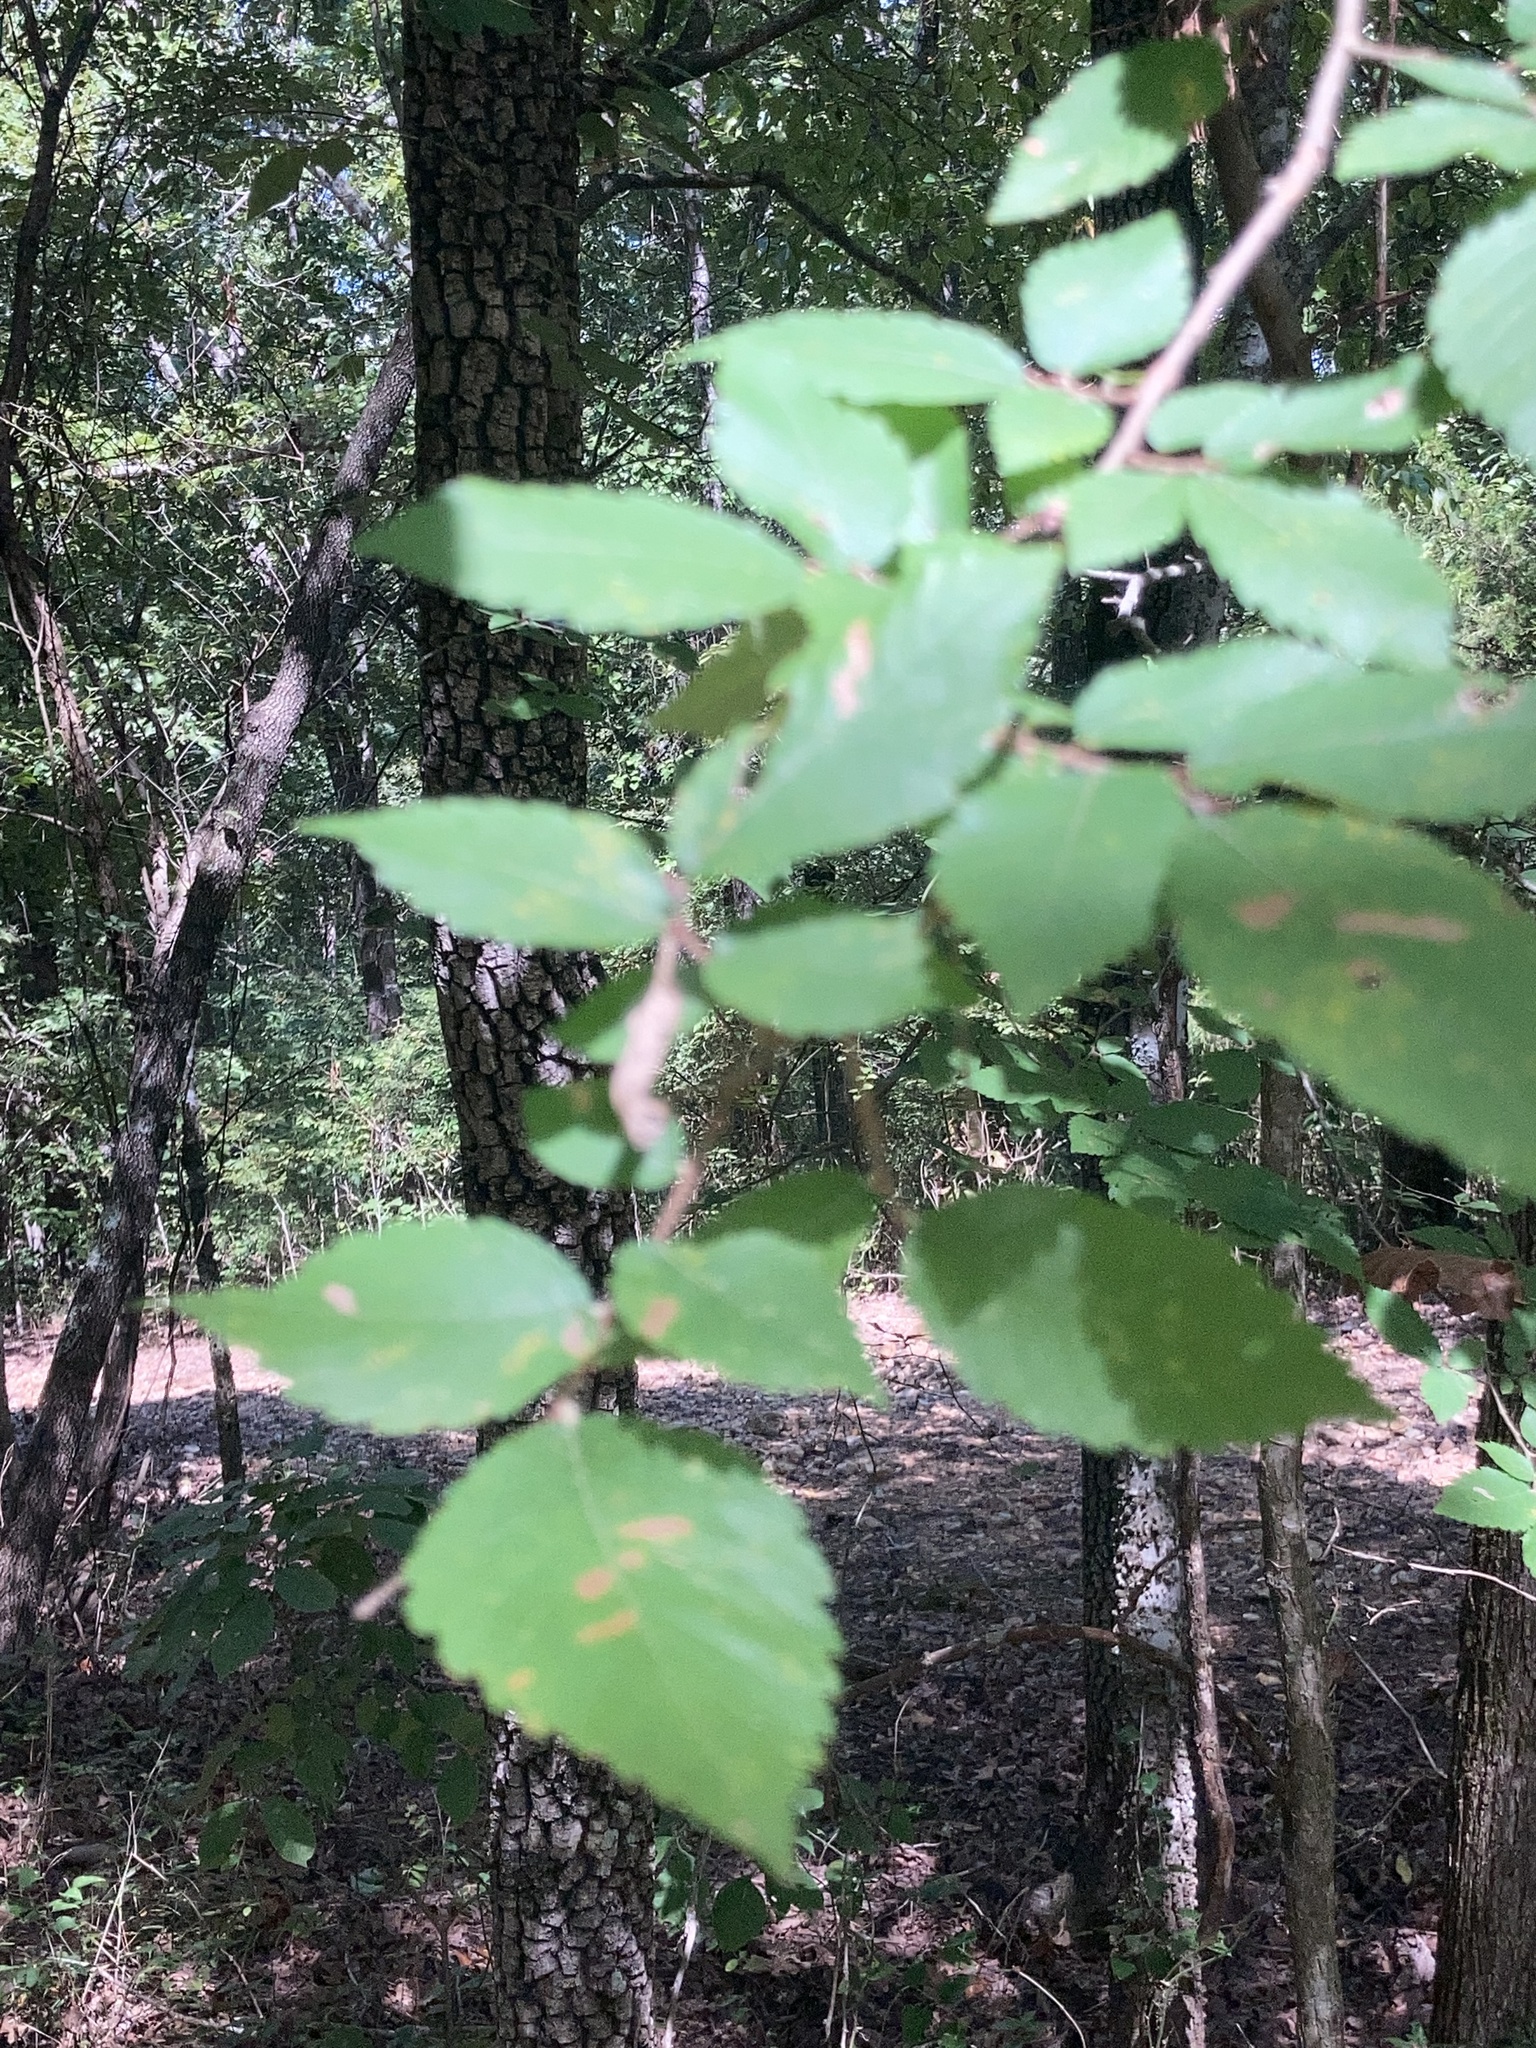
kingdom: Plantae
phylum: Tracheophyta
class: Magnoliopsida
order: Rosales
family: Ulmaceae
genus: Ulmus
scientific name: Ulmus alata
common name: Winged elm
